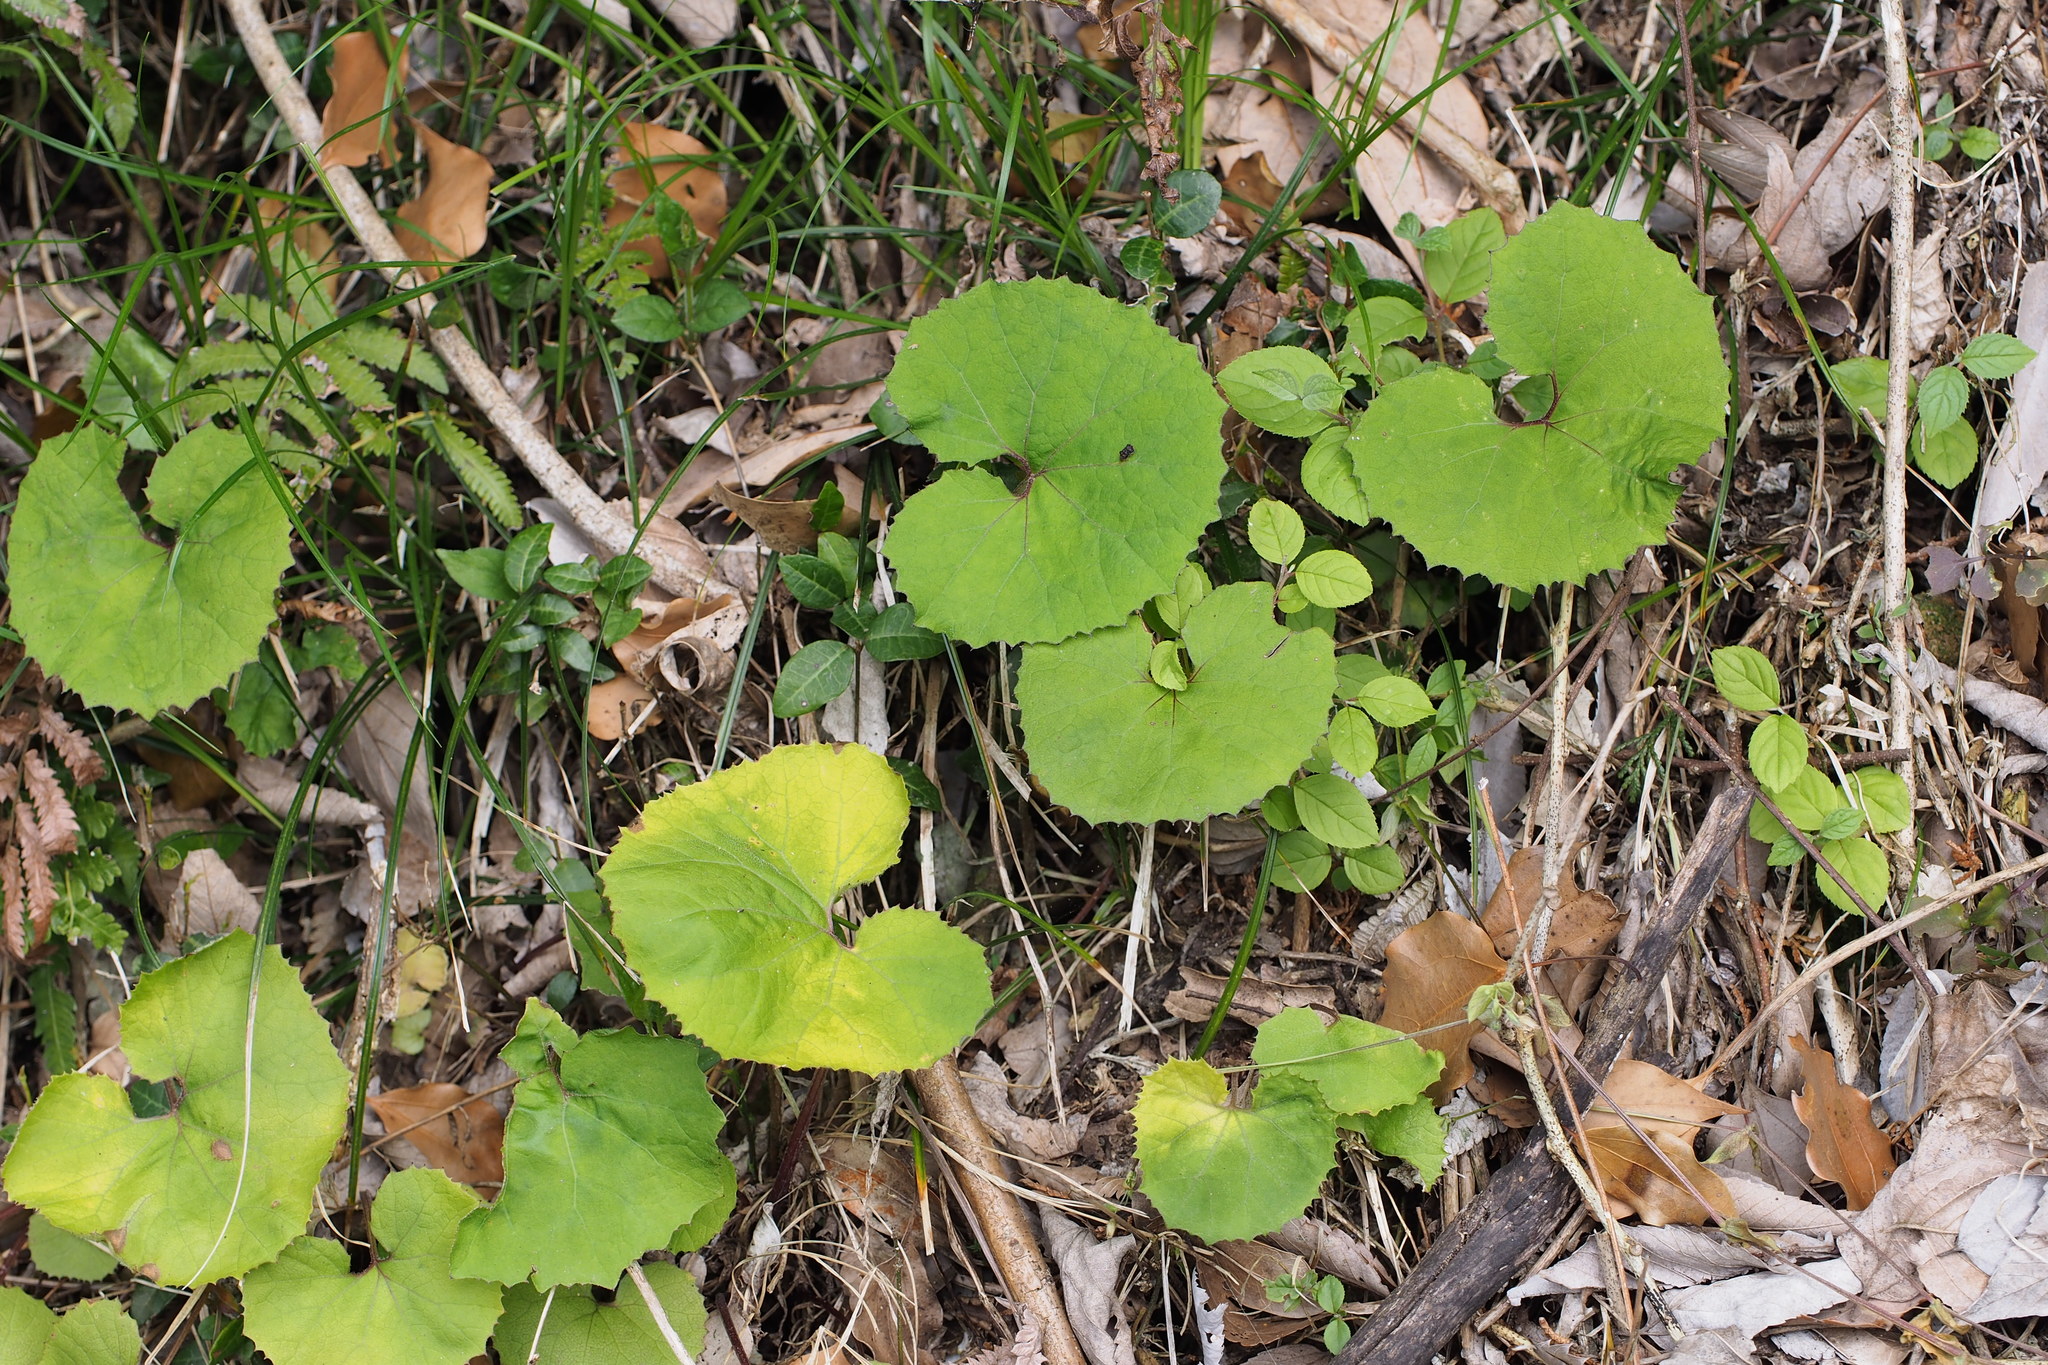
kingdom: Plantae
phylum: Tracheophyta
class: Magnoliopsida
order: Asterales
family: Asteraceae
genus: Petasites
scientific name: Petasites japonicus
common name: Giant butterbur
